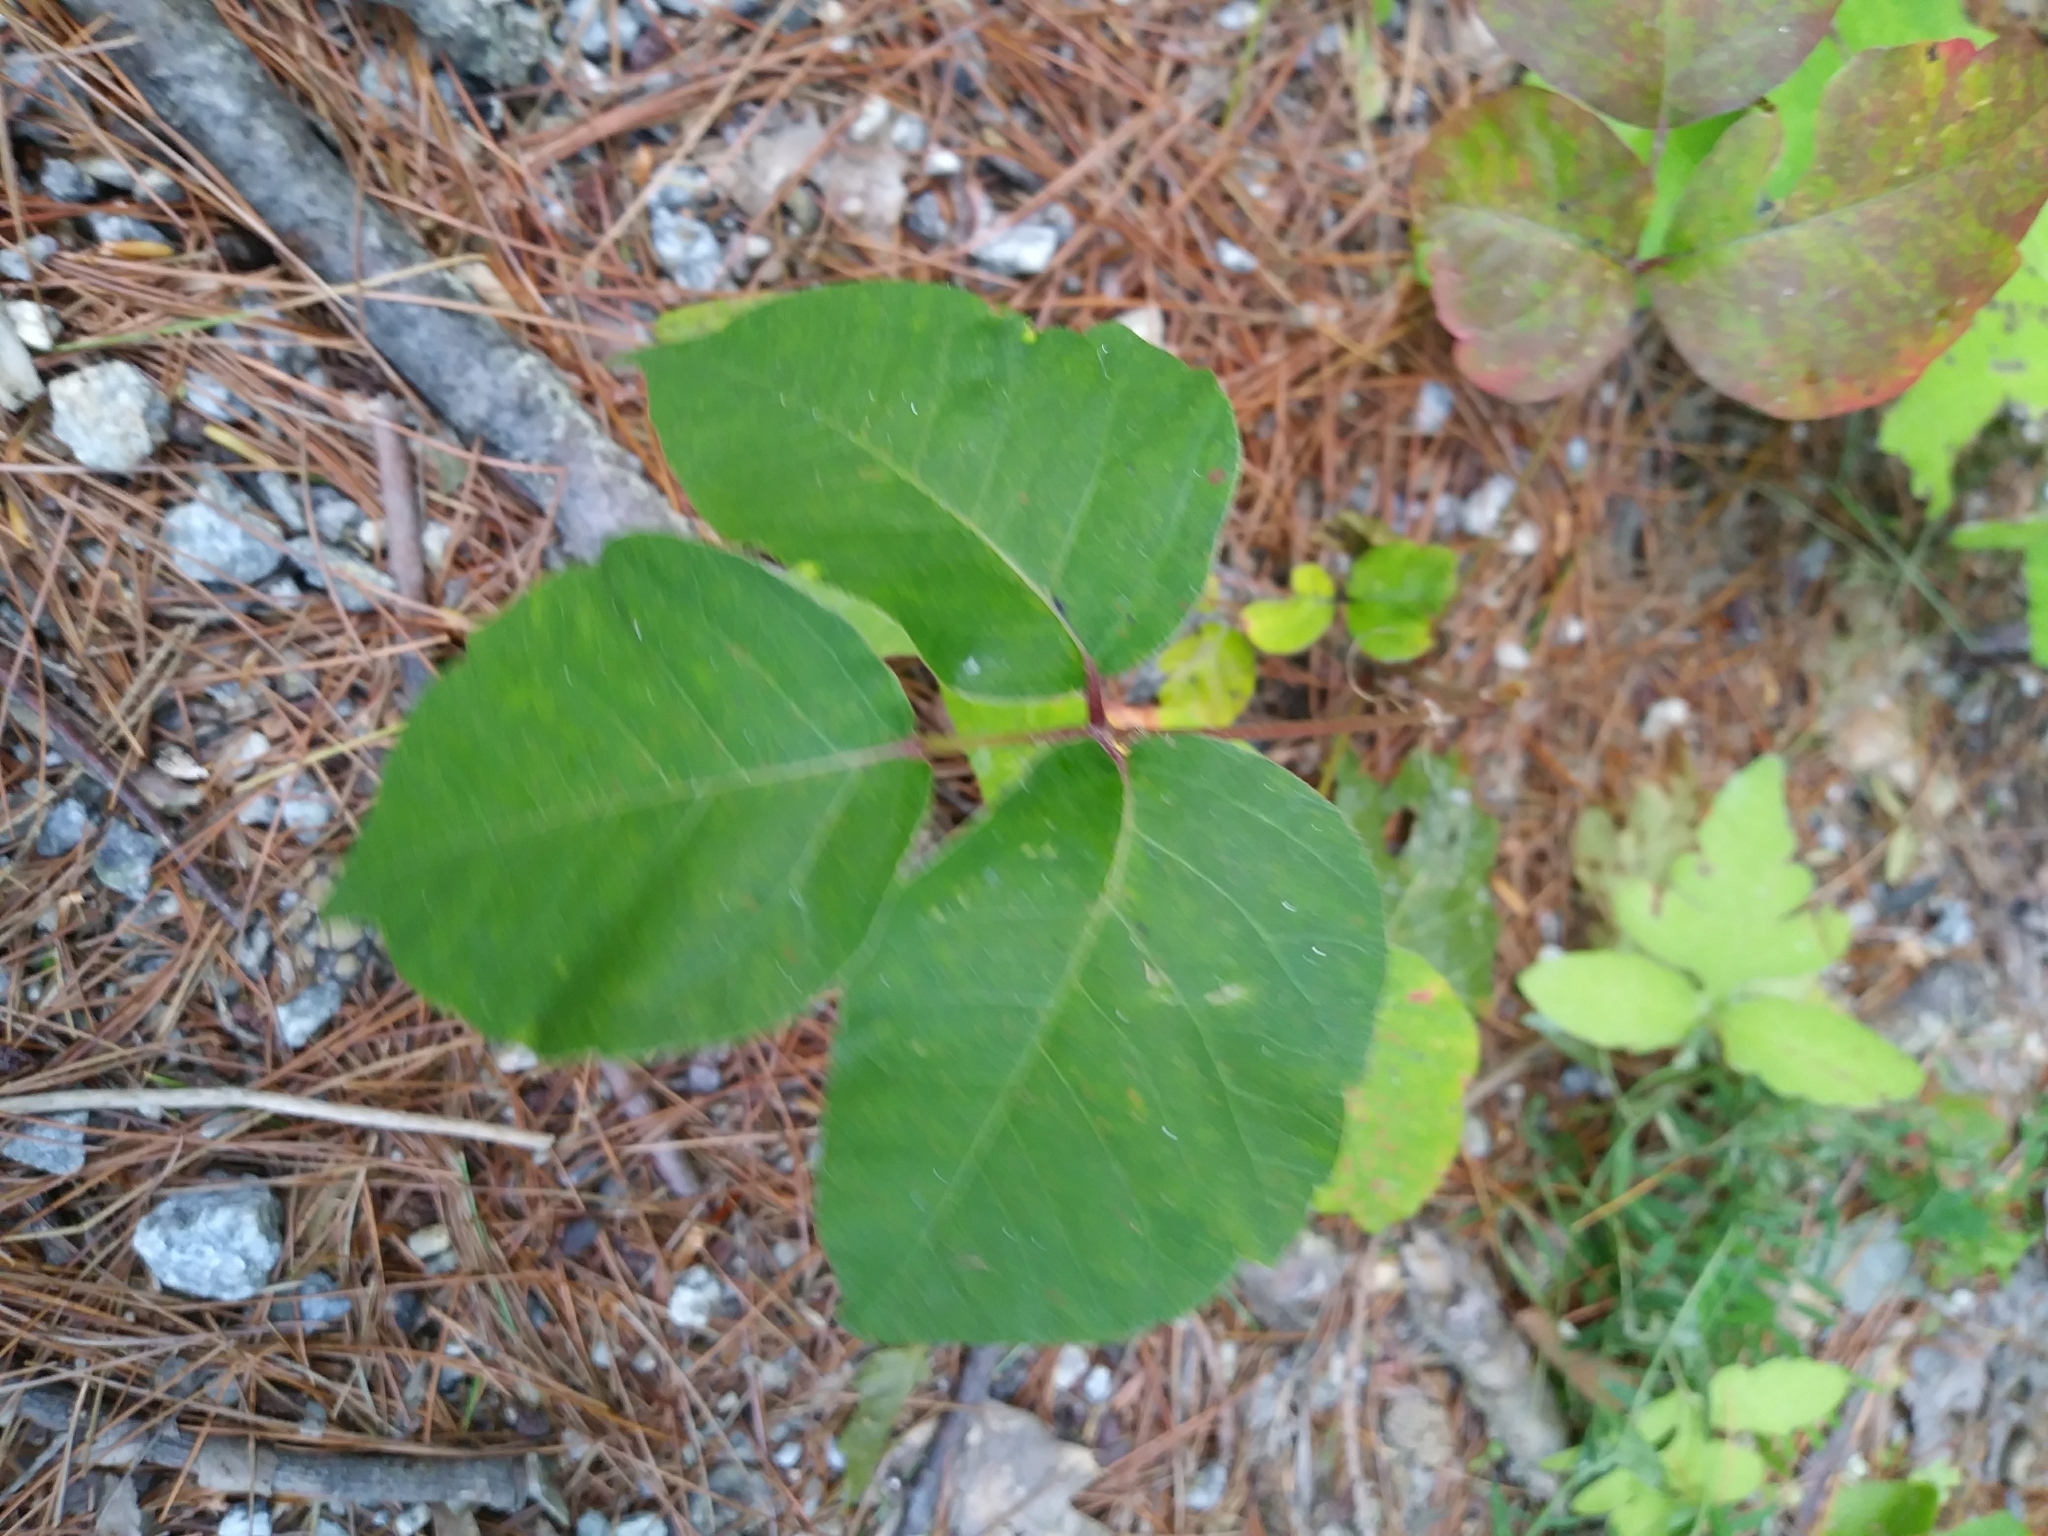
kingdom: Plantae
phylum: Tracheophyta
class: Magnoliopsida
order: Sapindales
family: Anacardiaceae
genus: Toxicodendron
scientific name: Toxicodendron radicans
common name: Poison ivy
